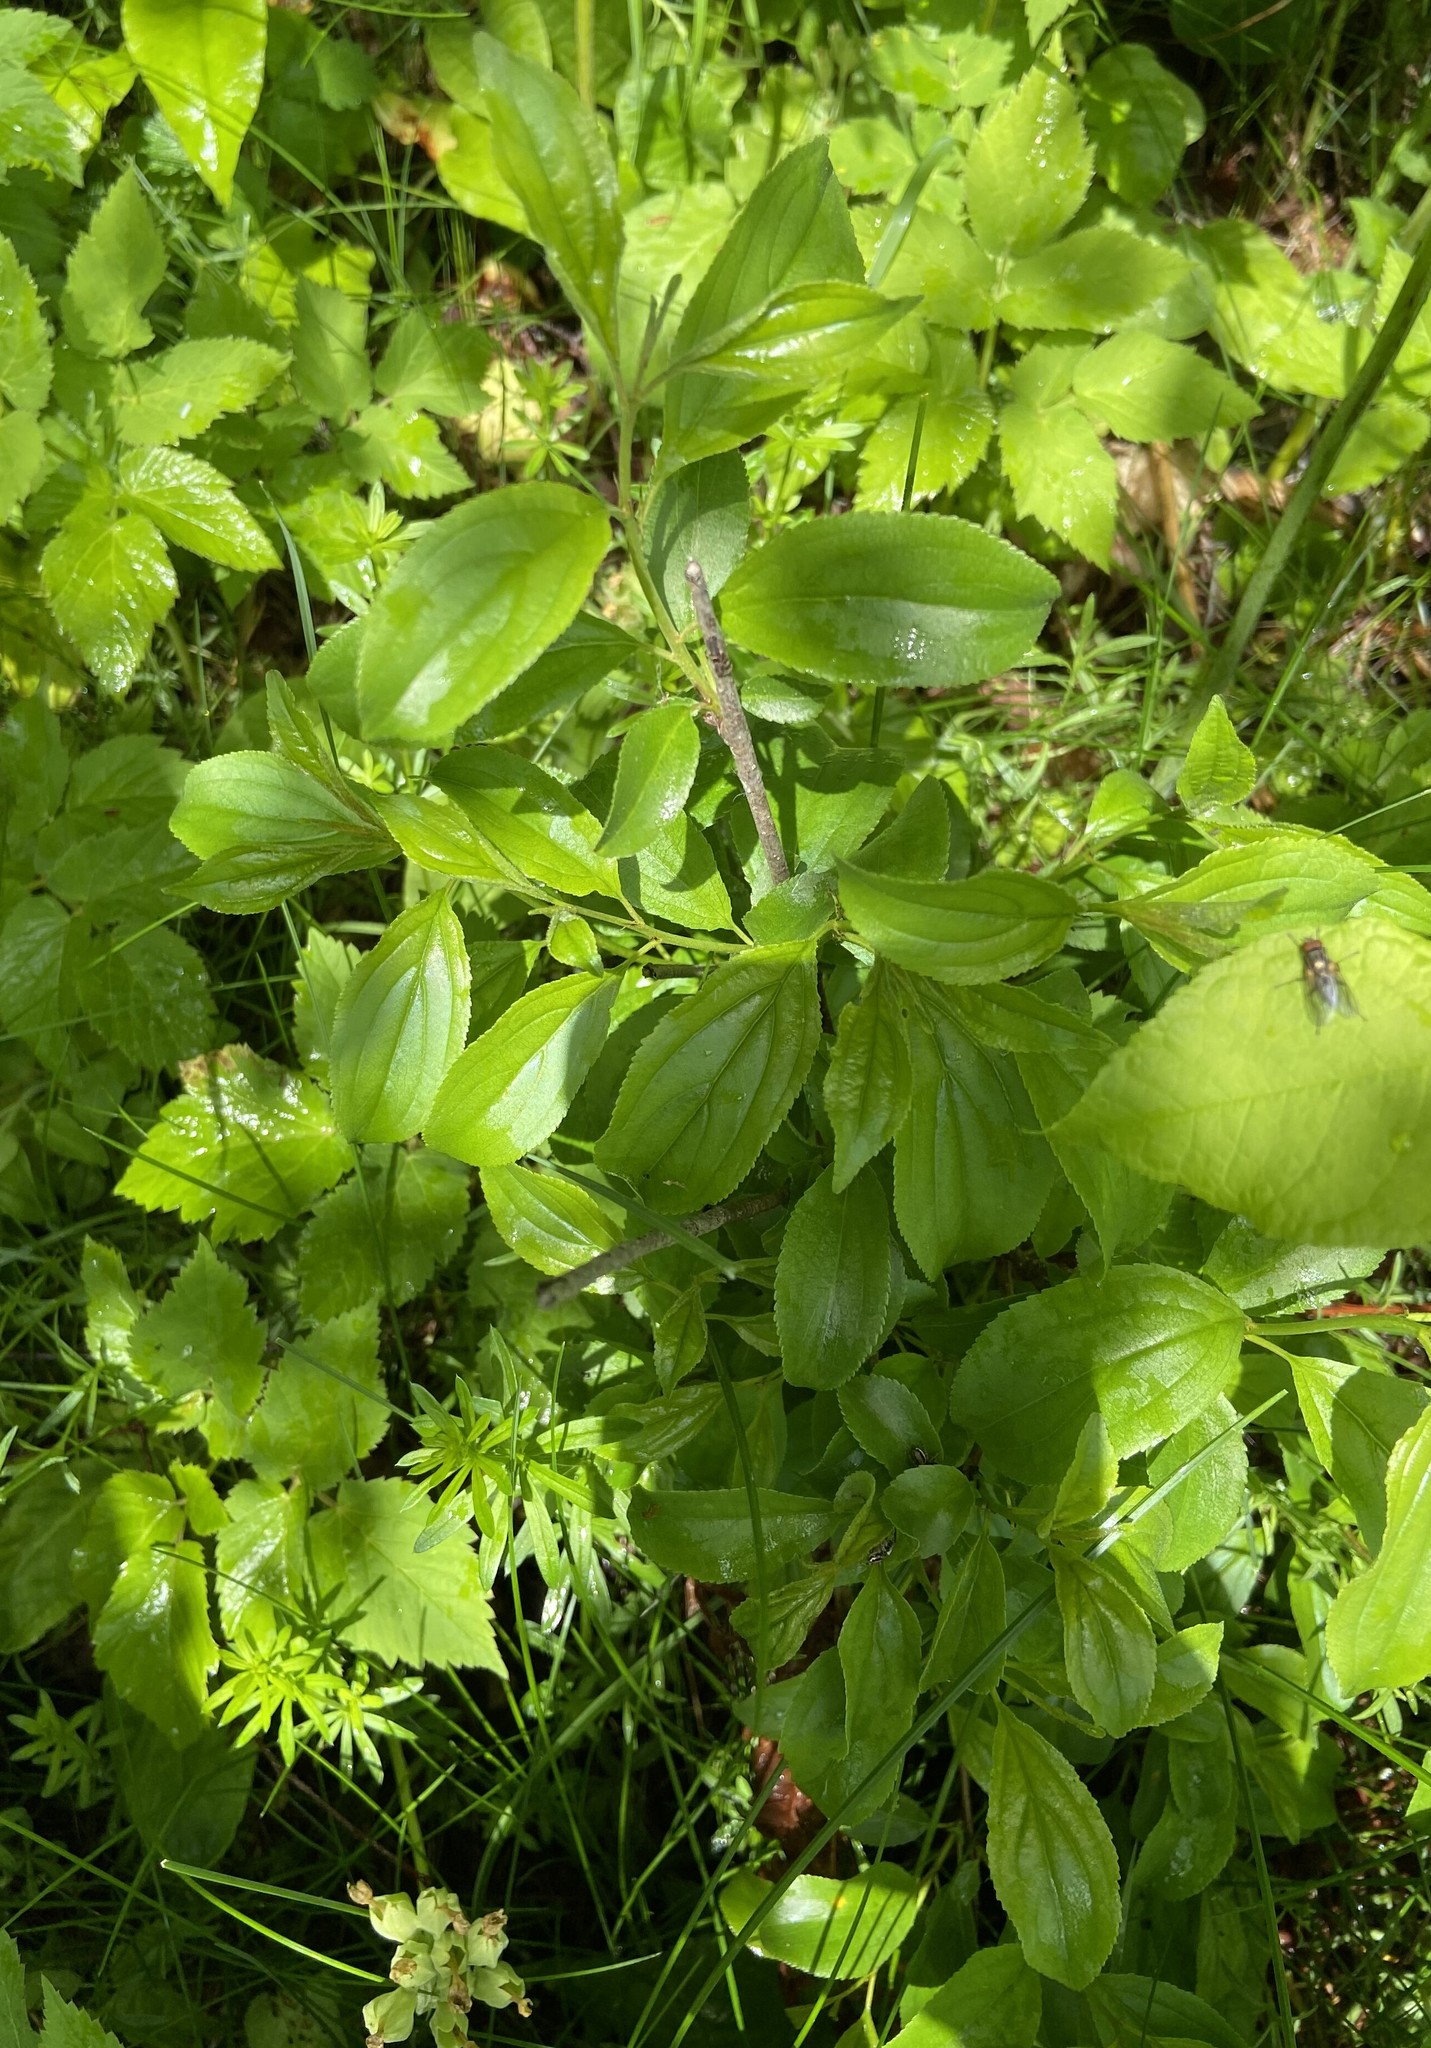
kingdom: Plantae
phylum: Tracheophyta
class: Magnoliopsida
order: Rosales
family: Rhamnaceae
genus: Rhamnus
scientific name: Rhamnus cathartica
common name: Common buckthorn
